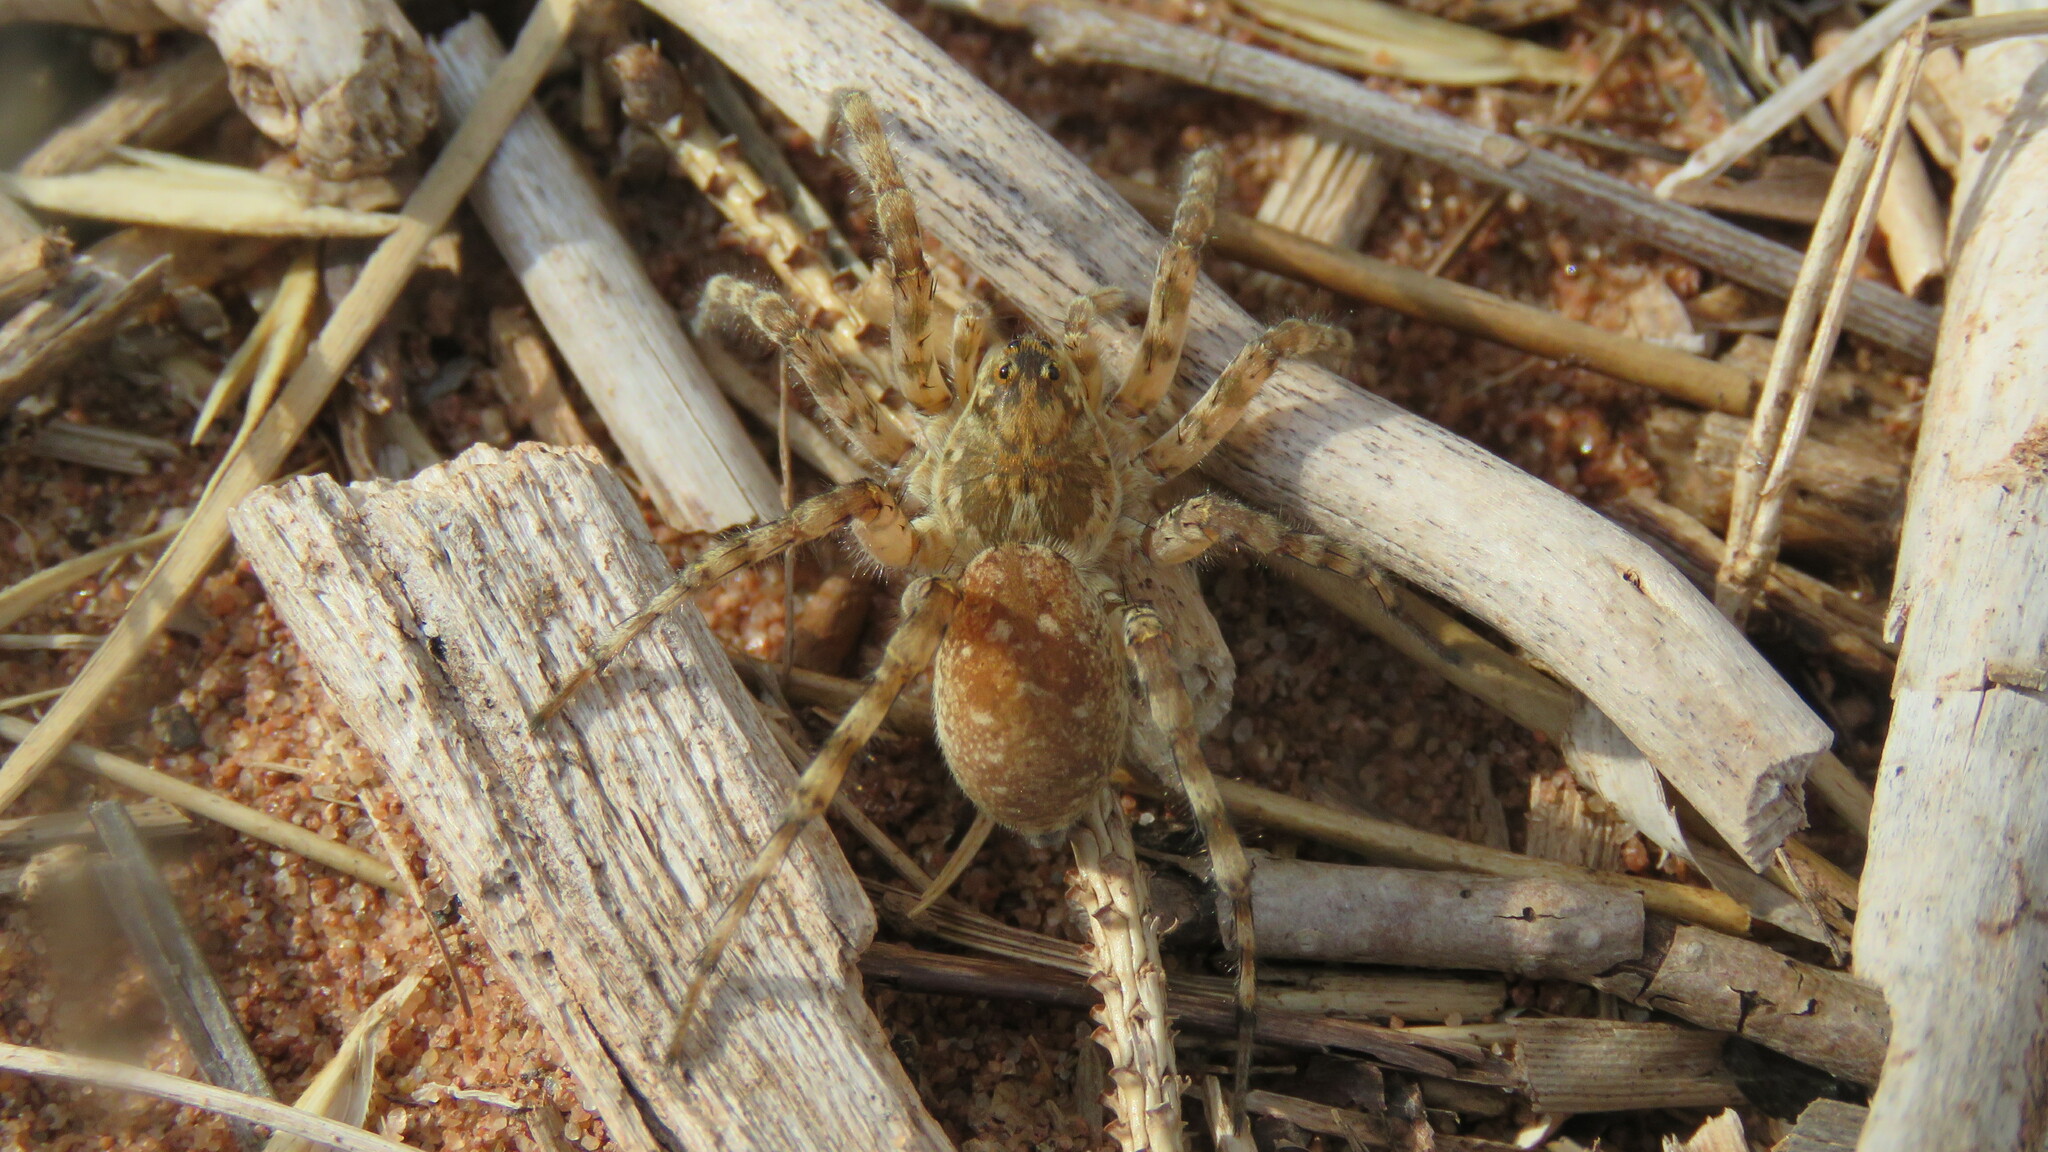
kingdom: Animalia
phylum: Arthropoda
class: Arachnida
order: Araneae
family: Lycosidae
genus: Arctosa
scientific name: Arctosa littoralis
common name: Wolf spiders
